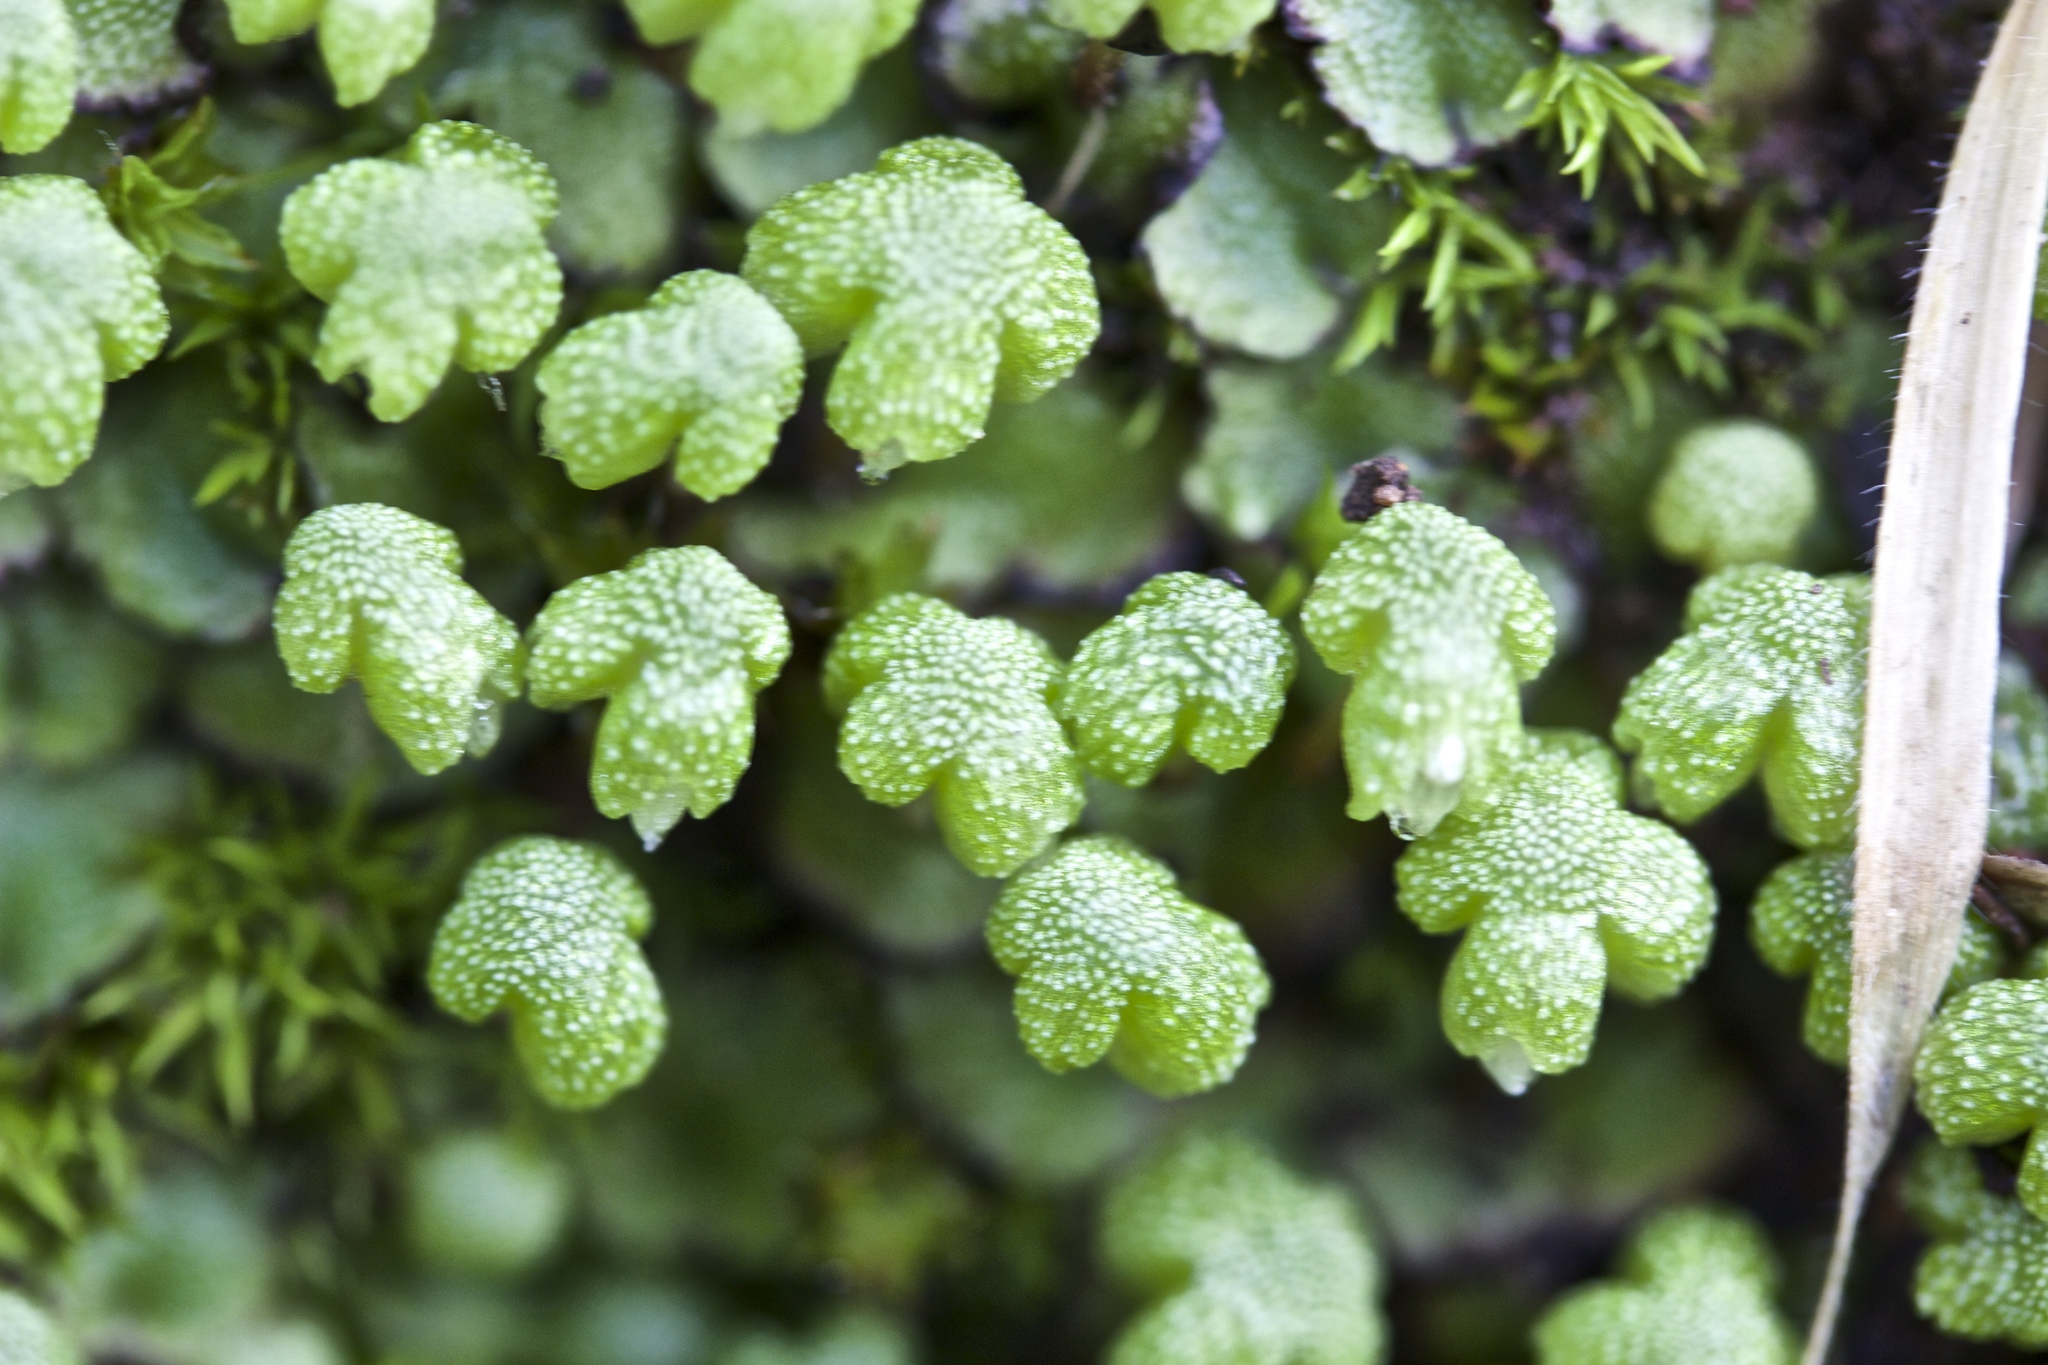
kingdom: Plantae
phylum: Marchantiophyta
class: Marchantiopsida
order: Marchantiales
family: Aytoniaceae
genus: Asterella
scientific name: Asterella californica
